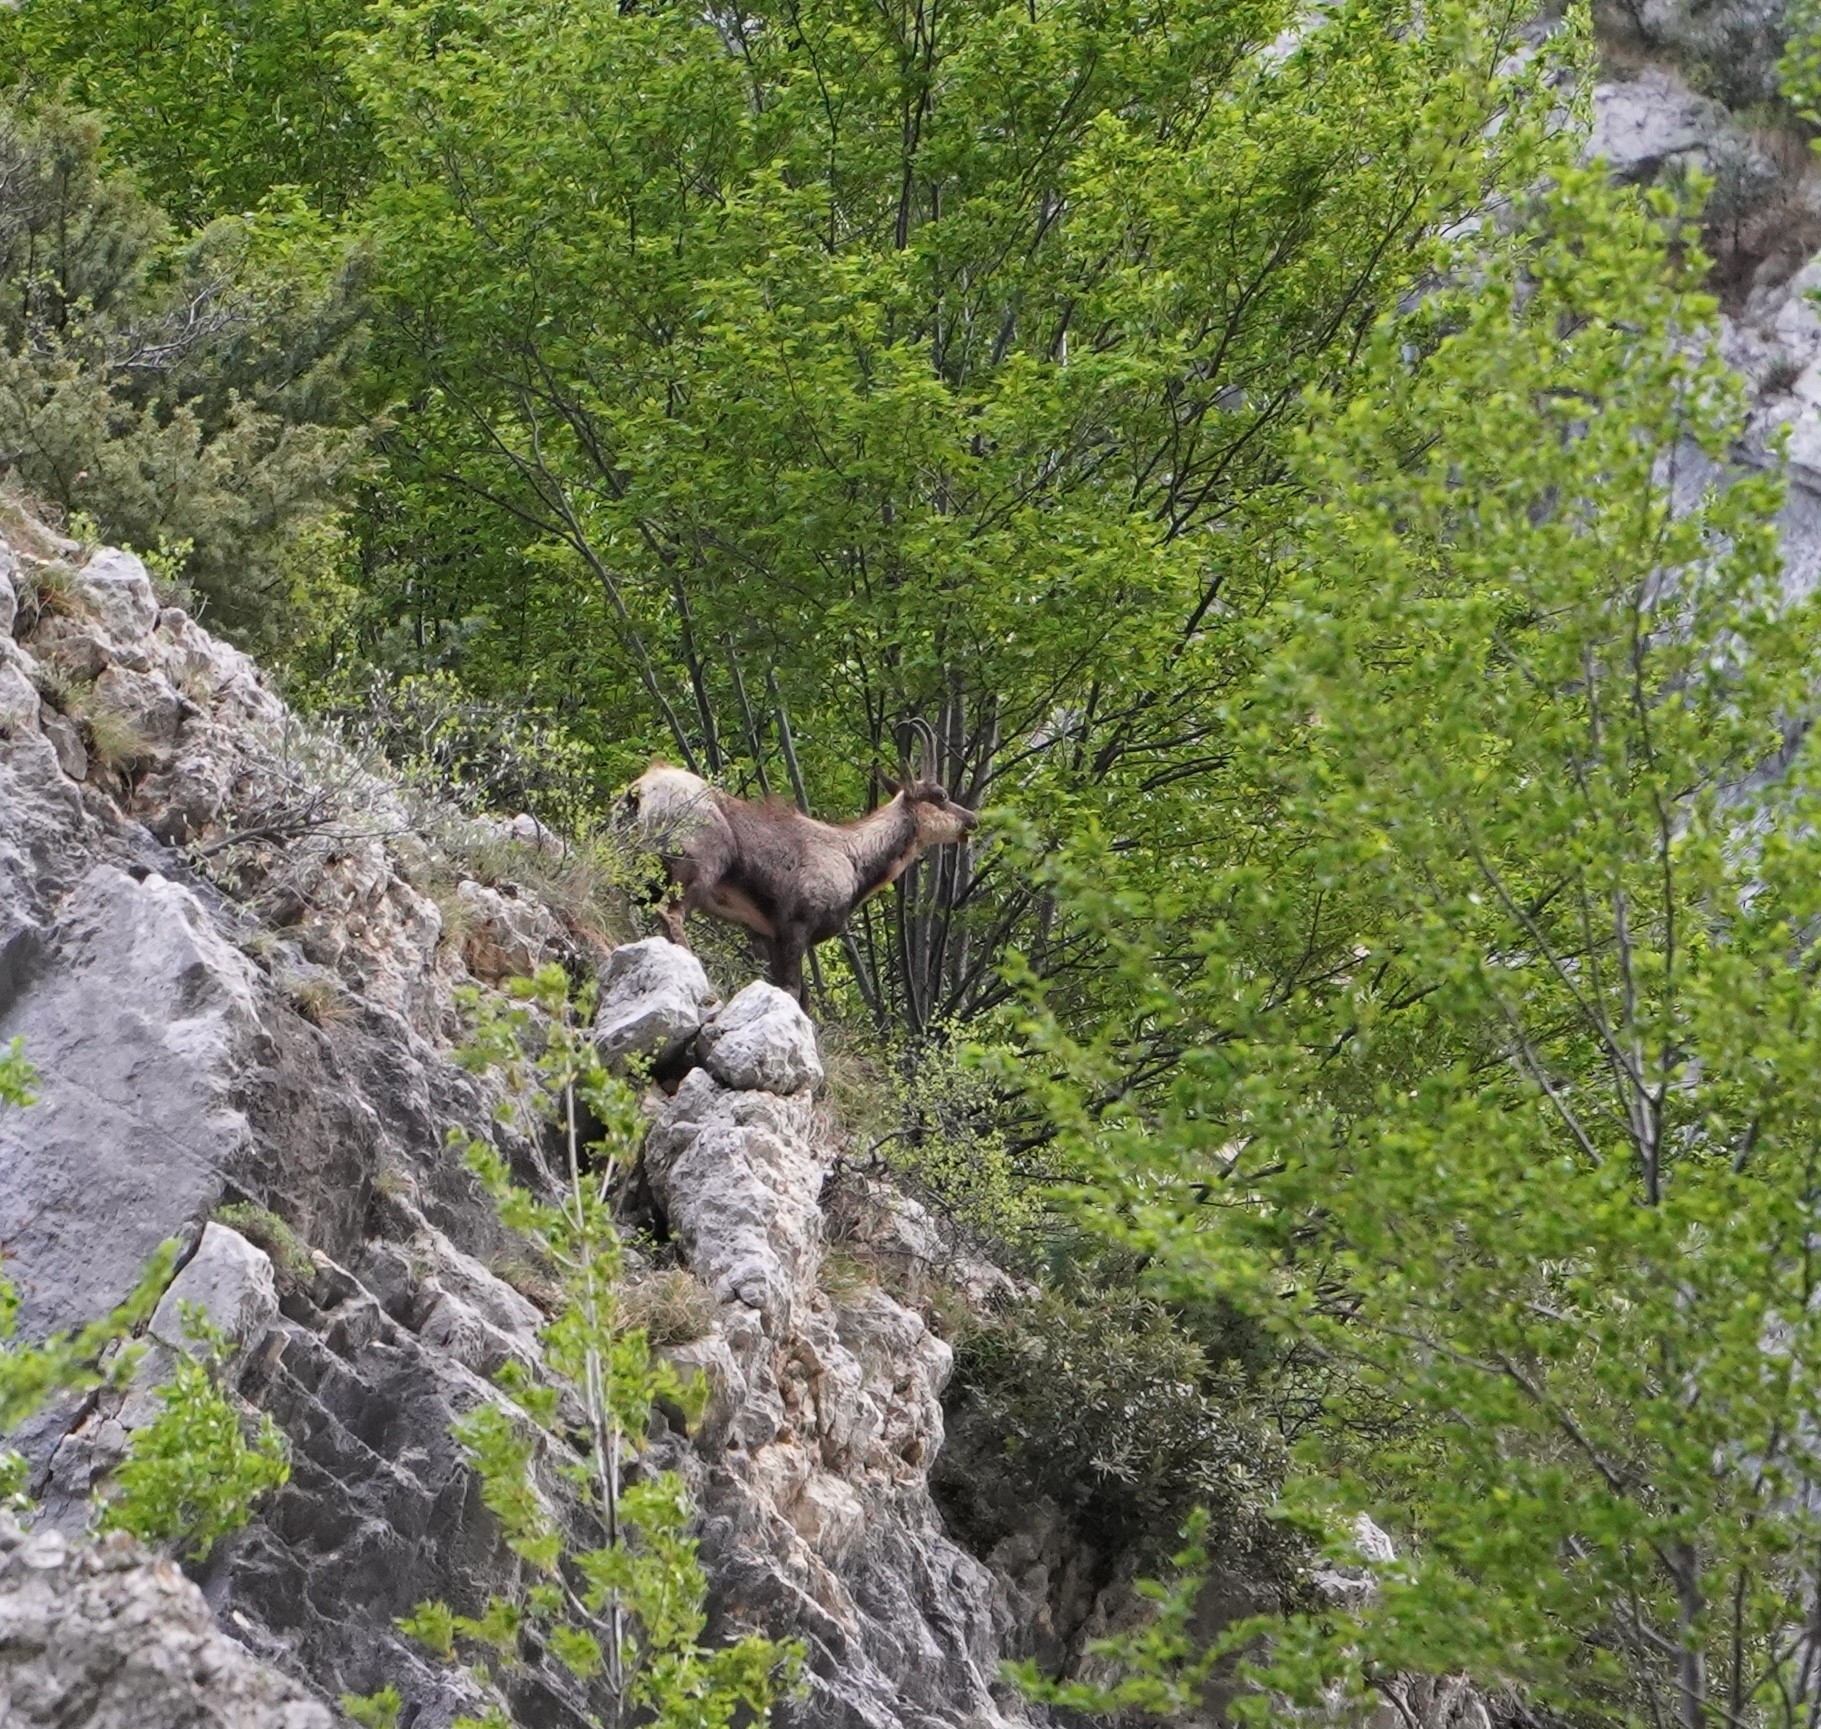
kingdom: Animalia
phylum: Chordata
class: Mammalia
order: Artiodactyla
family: Bovidae
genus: Rupicapra
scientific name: Rupicapra pyrenaica
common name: Pyrenean chamois
